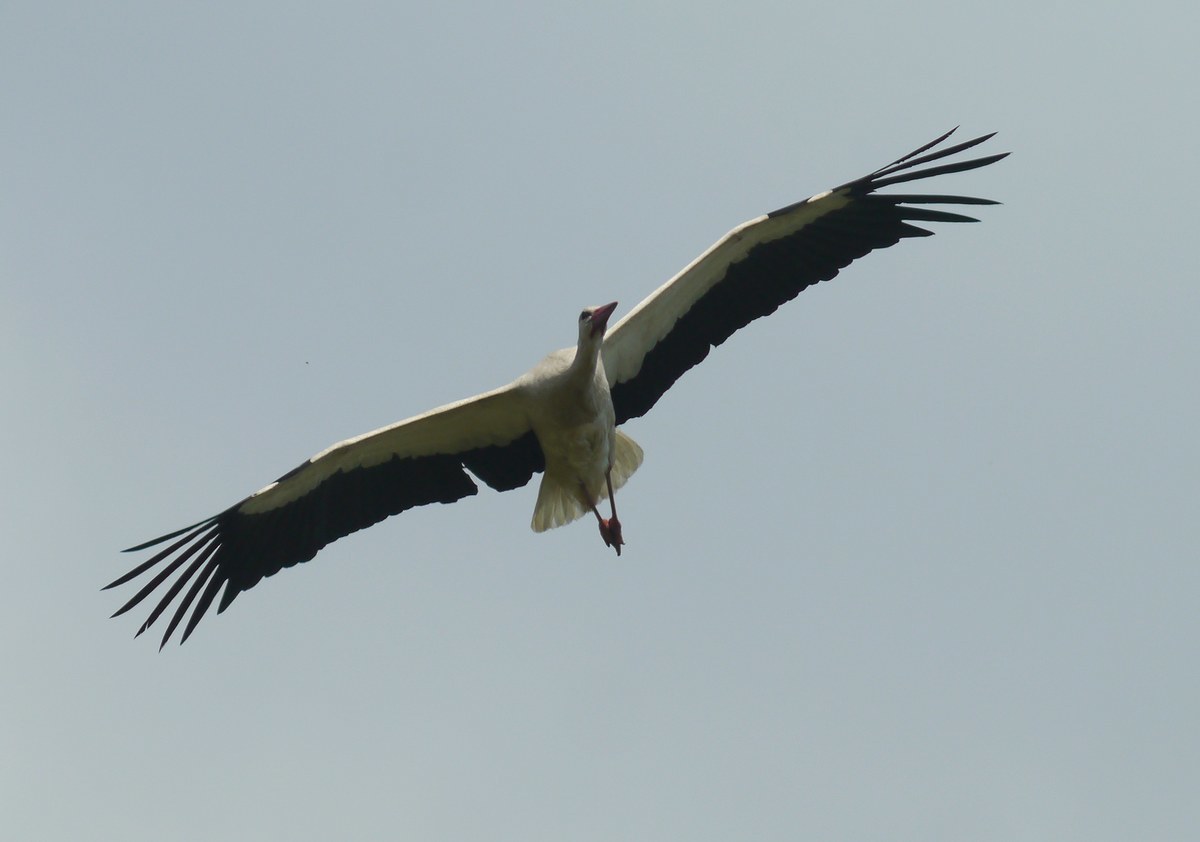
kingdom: Animalia
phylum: Chordata
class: Aves
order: Ciconiiformes
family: Ciconiidae
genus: Ciconia
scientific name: Ciconia ciconia
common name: White stork
